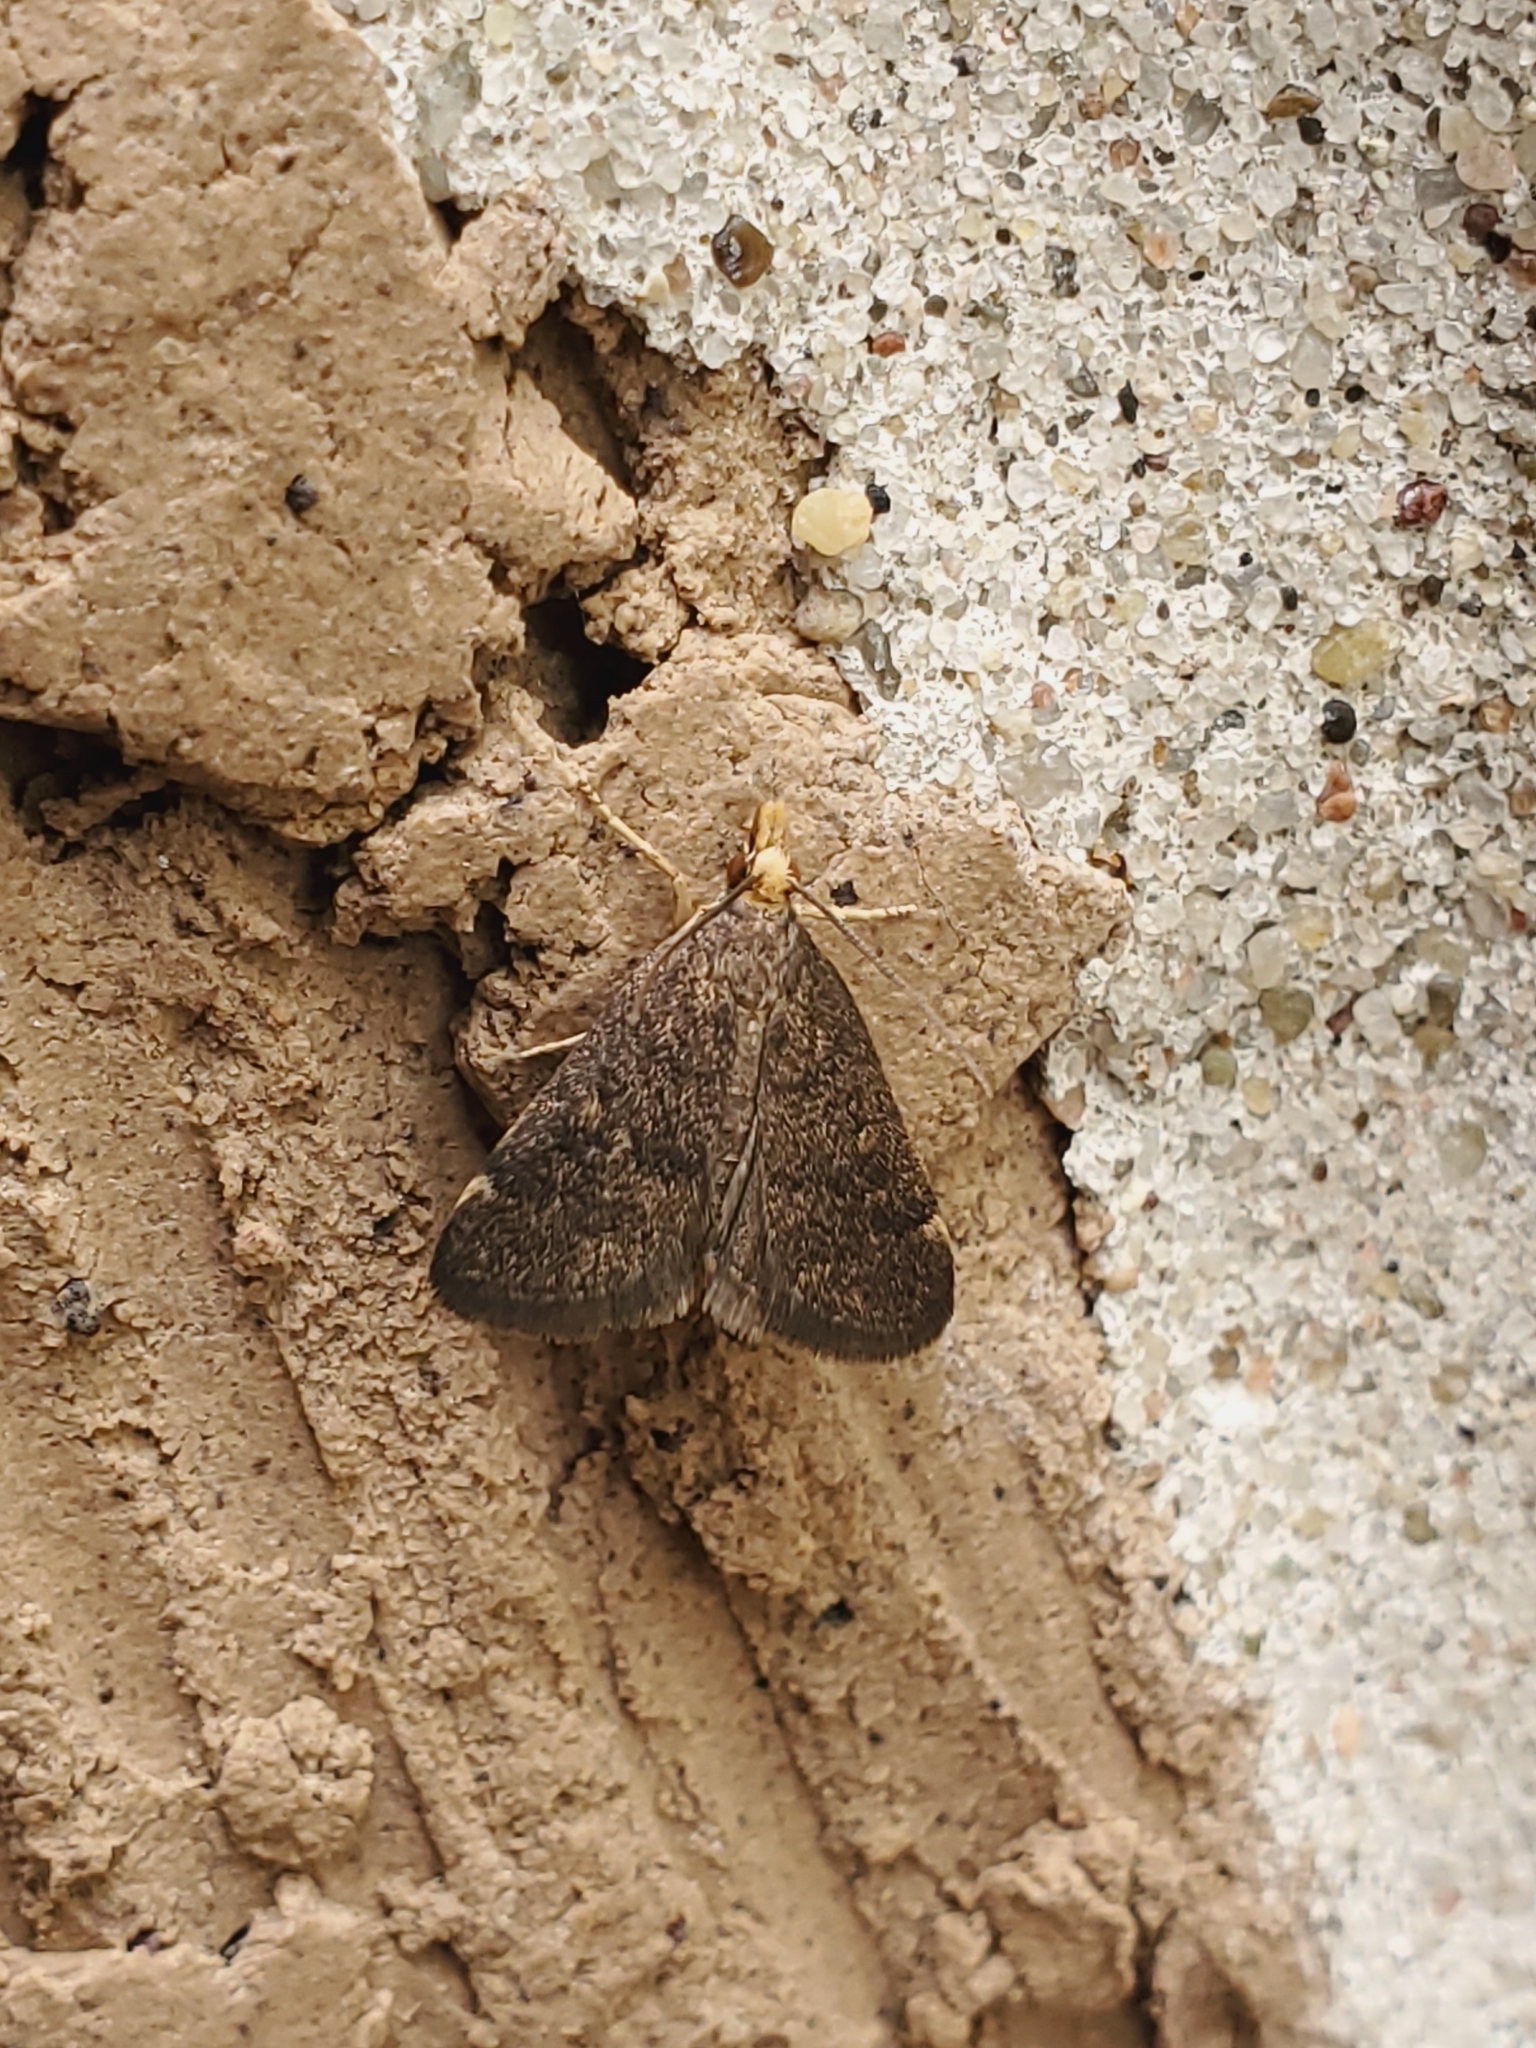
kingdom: Animalia
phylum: Arthropoda
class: Insecta
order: Lepidoptera
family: Crambidae
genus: Pyrausta
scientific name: Pyrausta merrickalis
